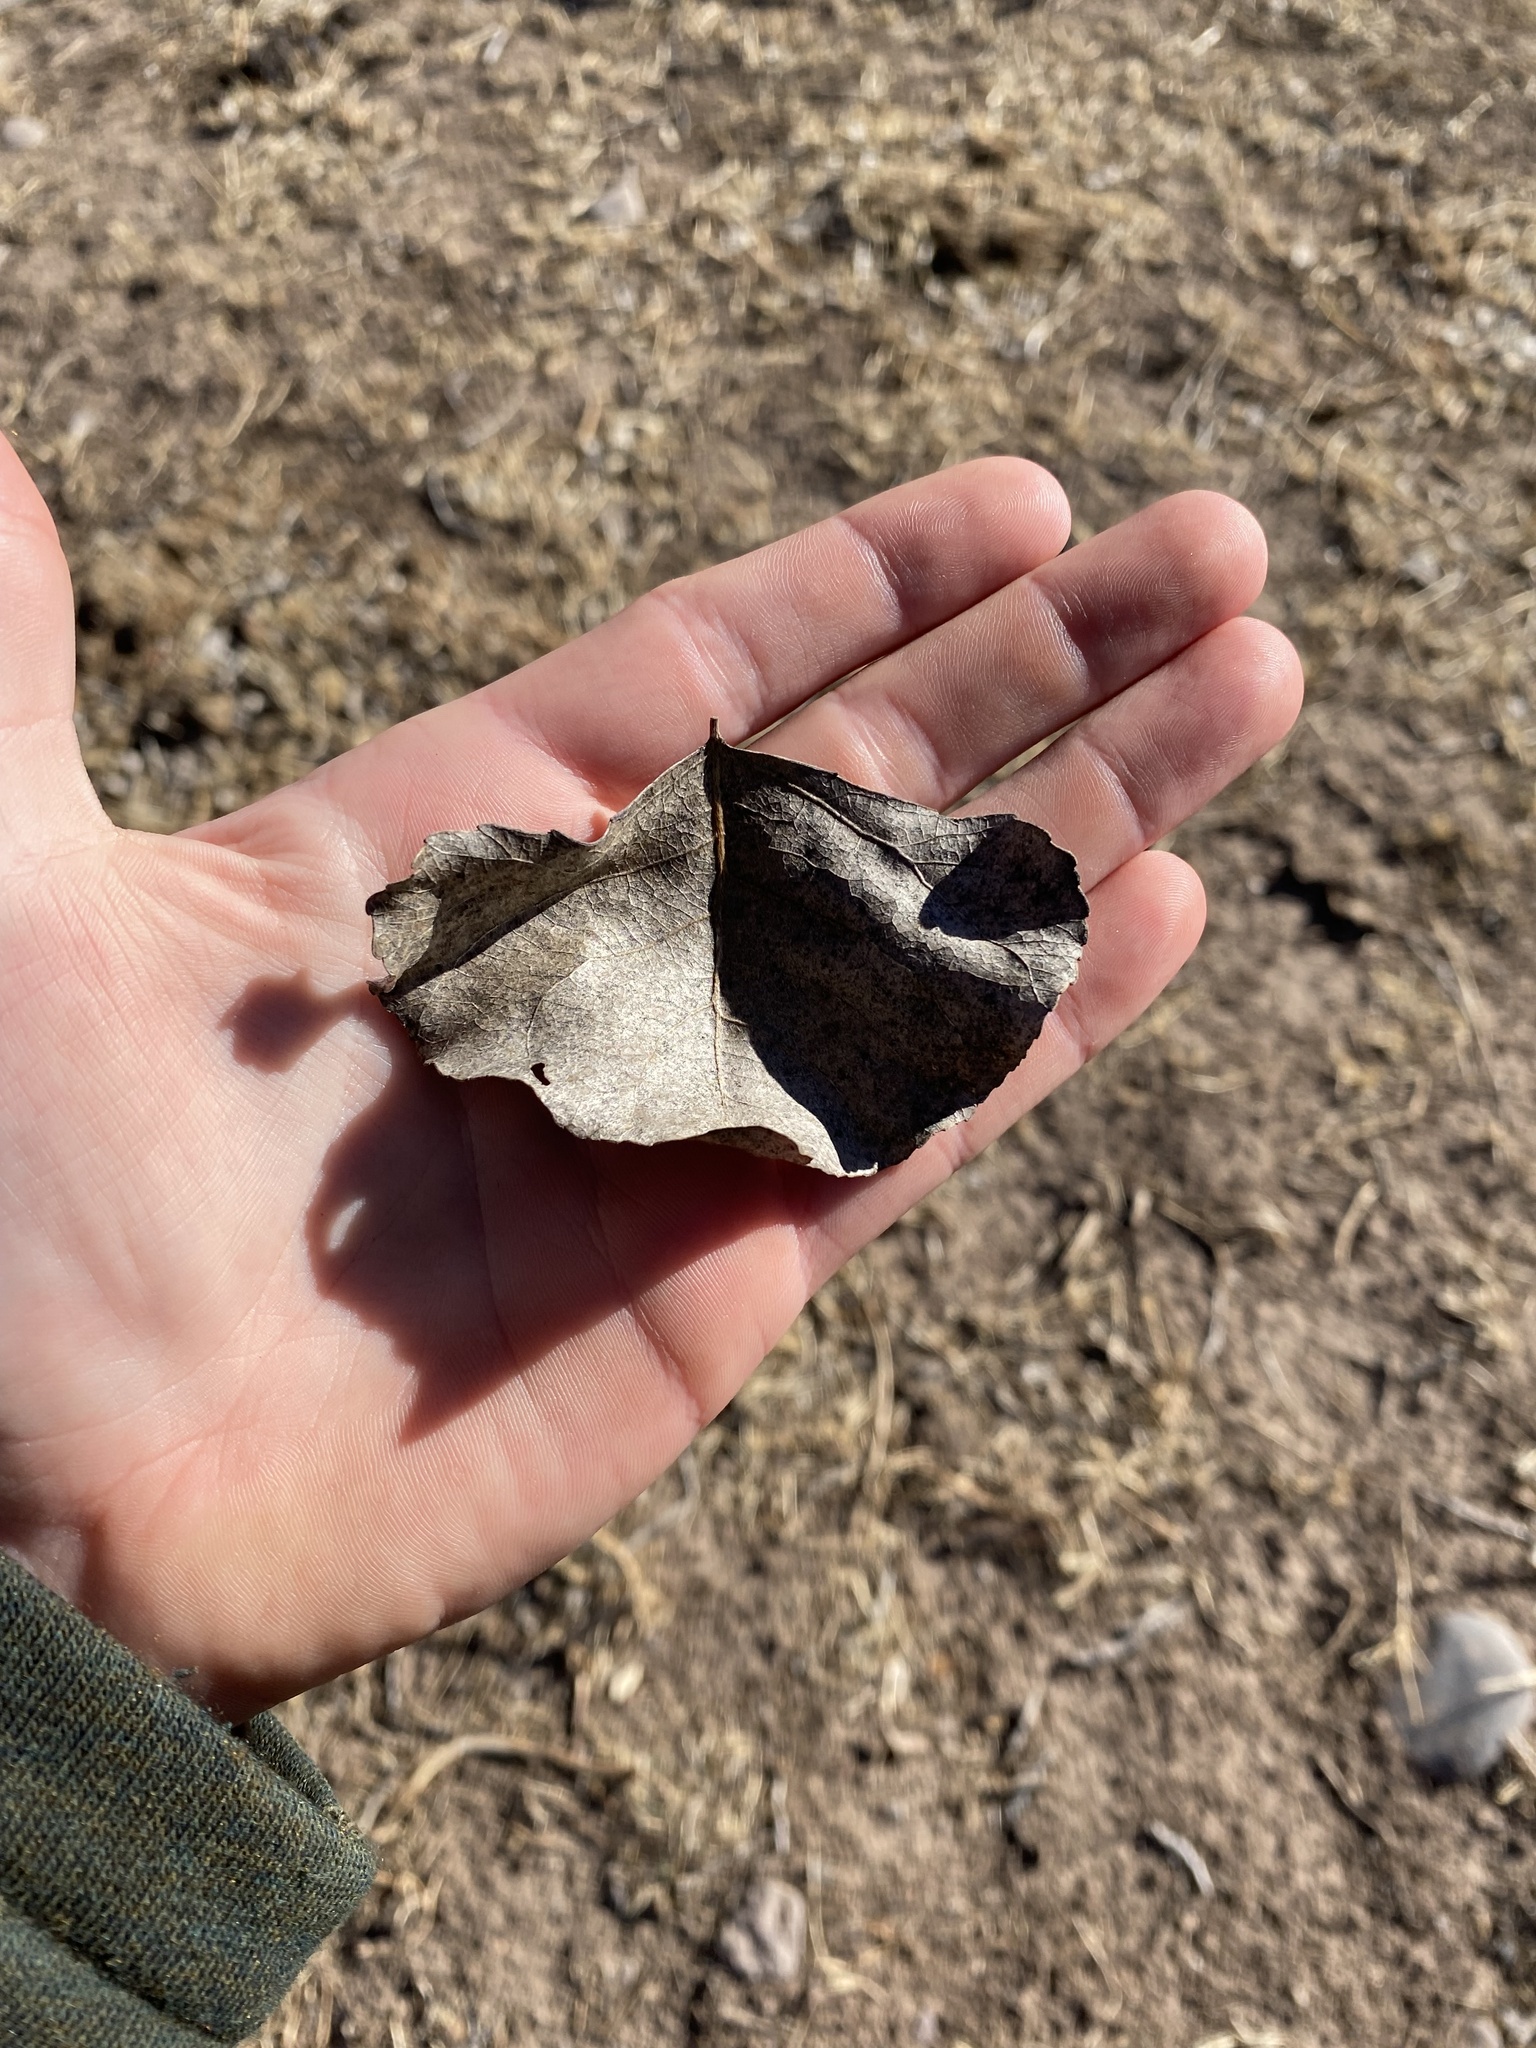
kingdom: Plantae
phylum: Tracheophyta
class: Magnoliopsida
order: Malpighiales
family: Salicaceae
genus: Populus
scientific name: Populus fremontii
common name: Fremont's cottonwood
